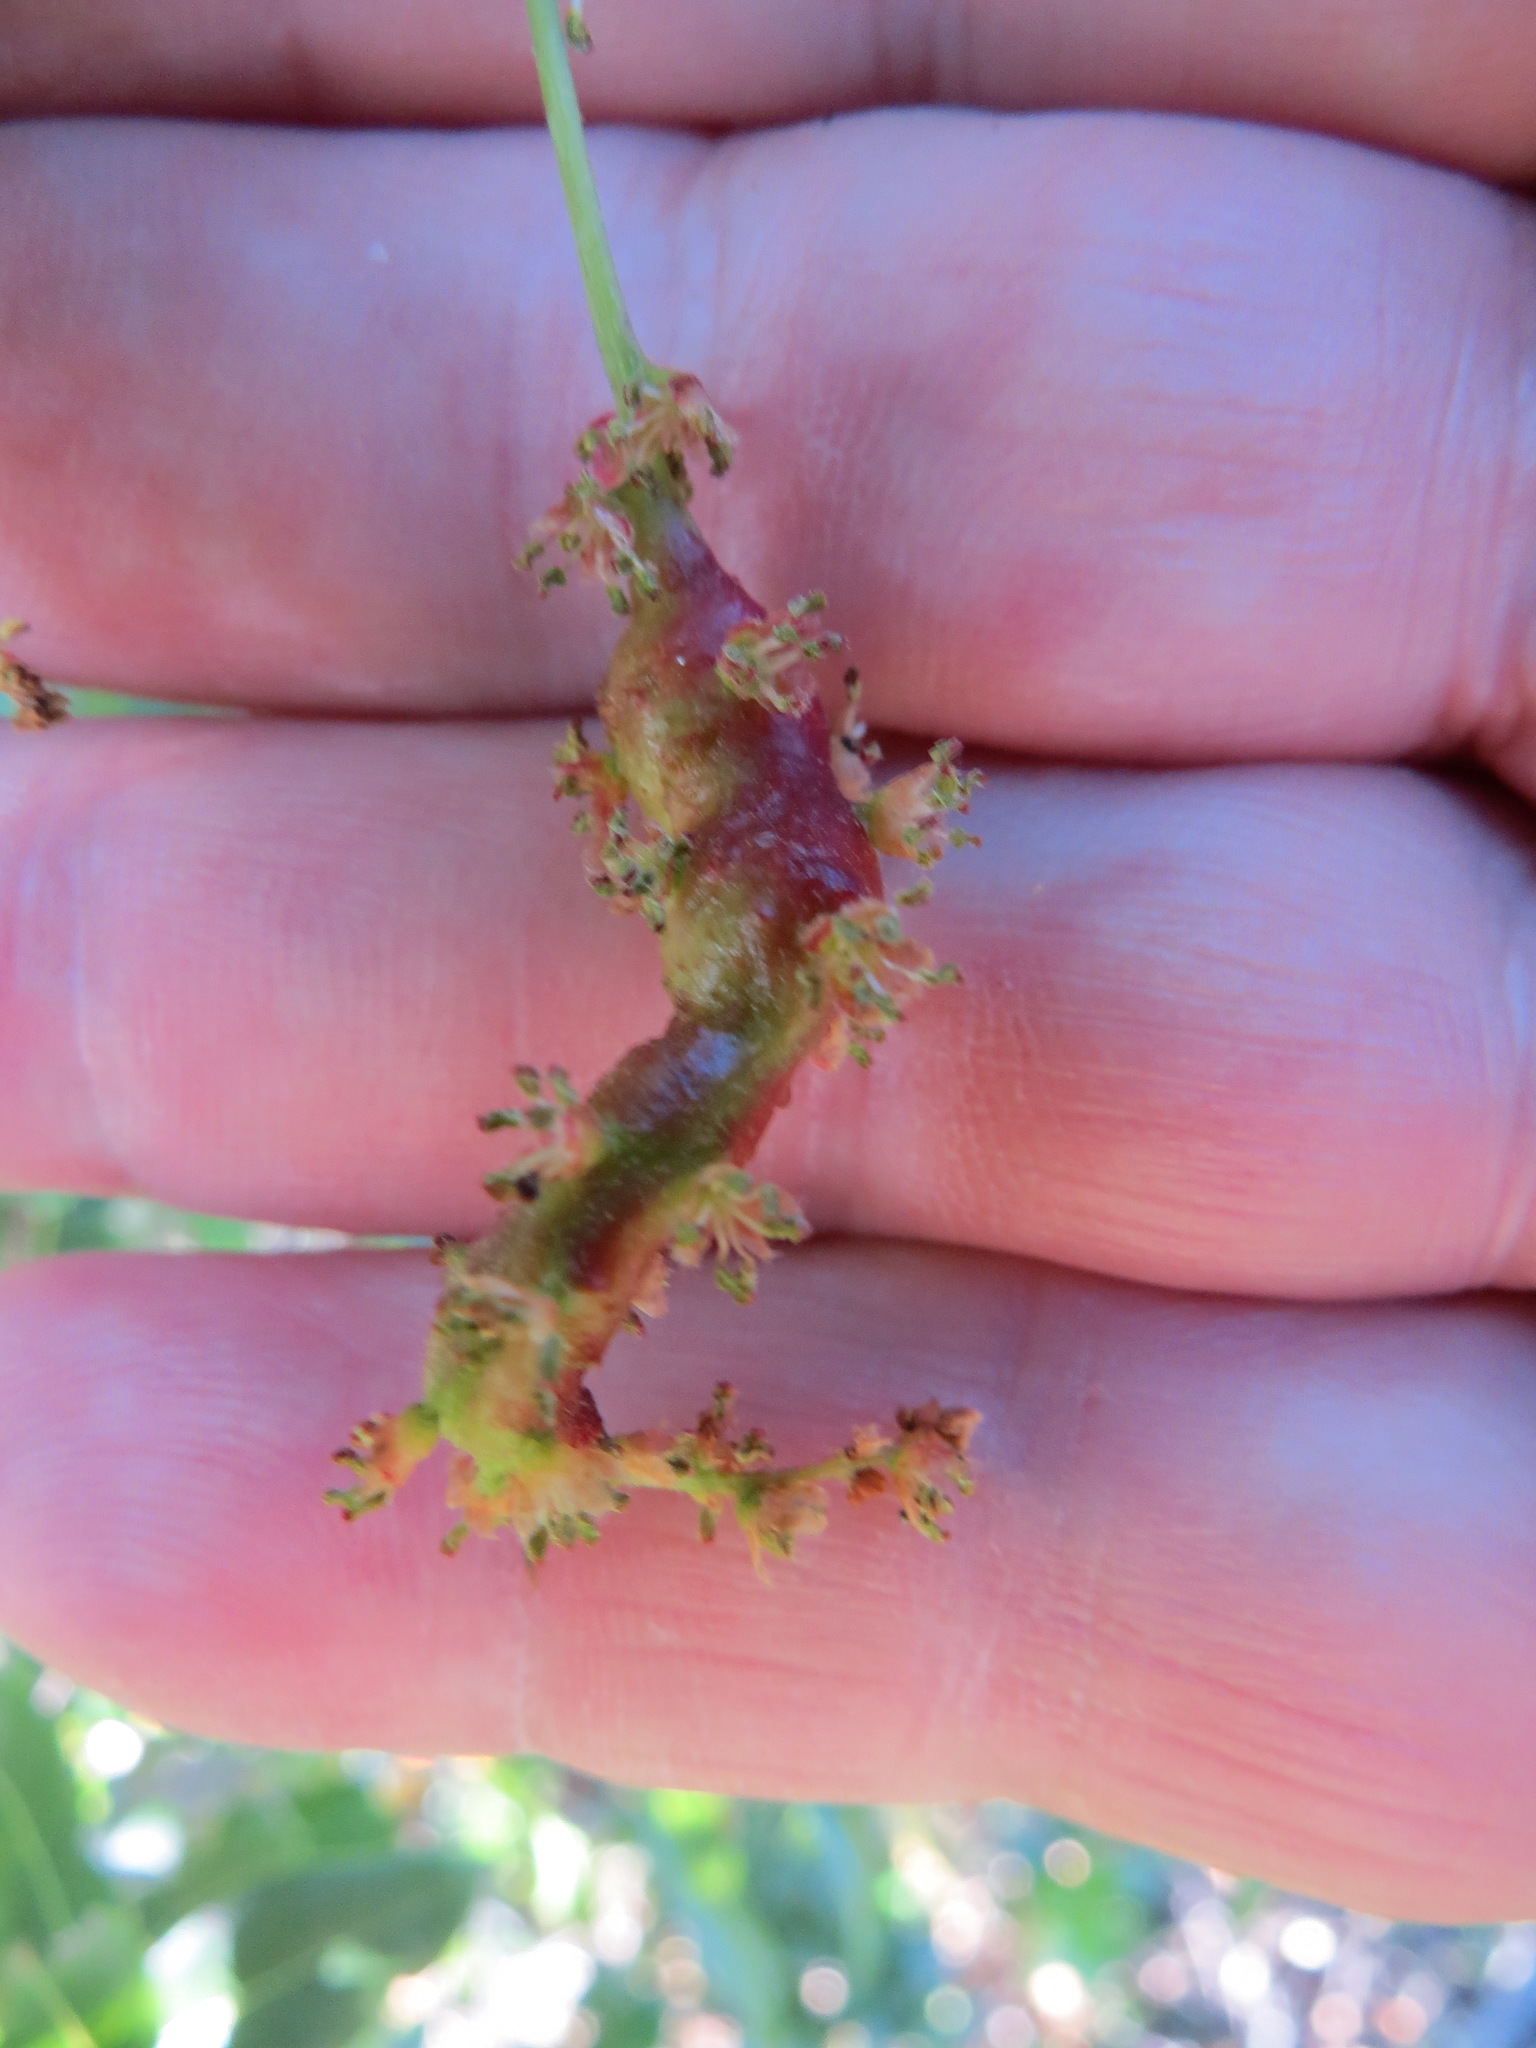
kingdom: Animalia
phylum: Arthropoda
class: Insecta
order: Hymenoptera
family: Cynipidae
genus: Callirhytis
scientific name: Callirhytis
